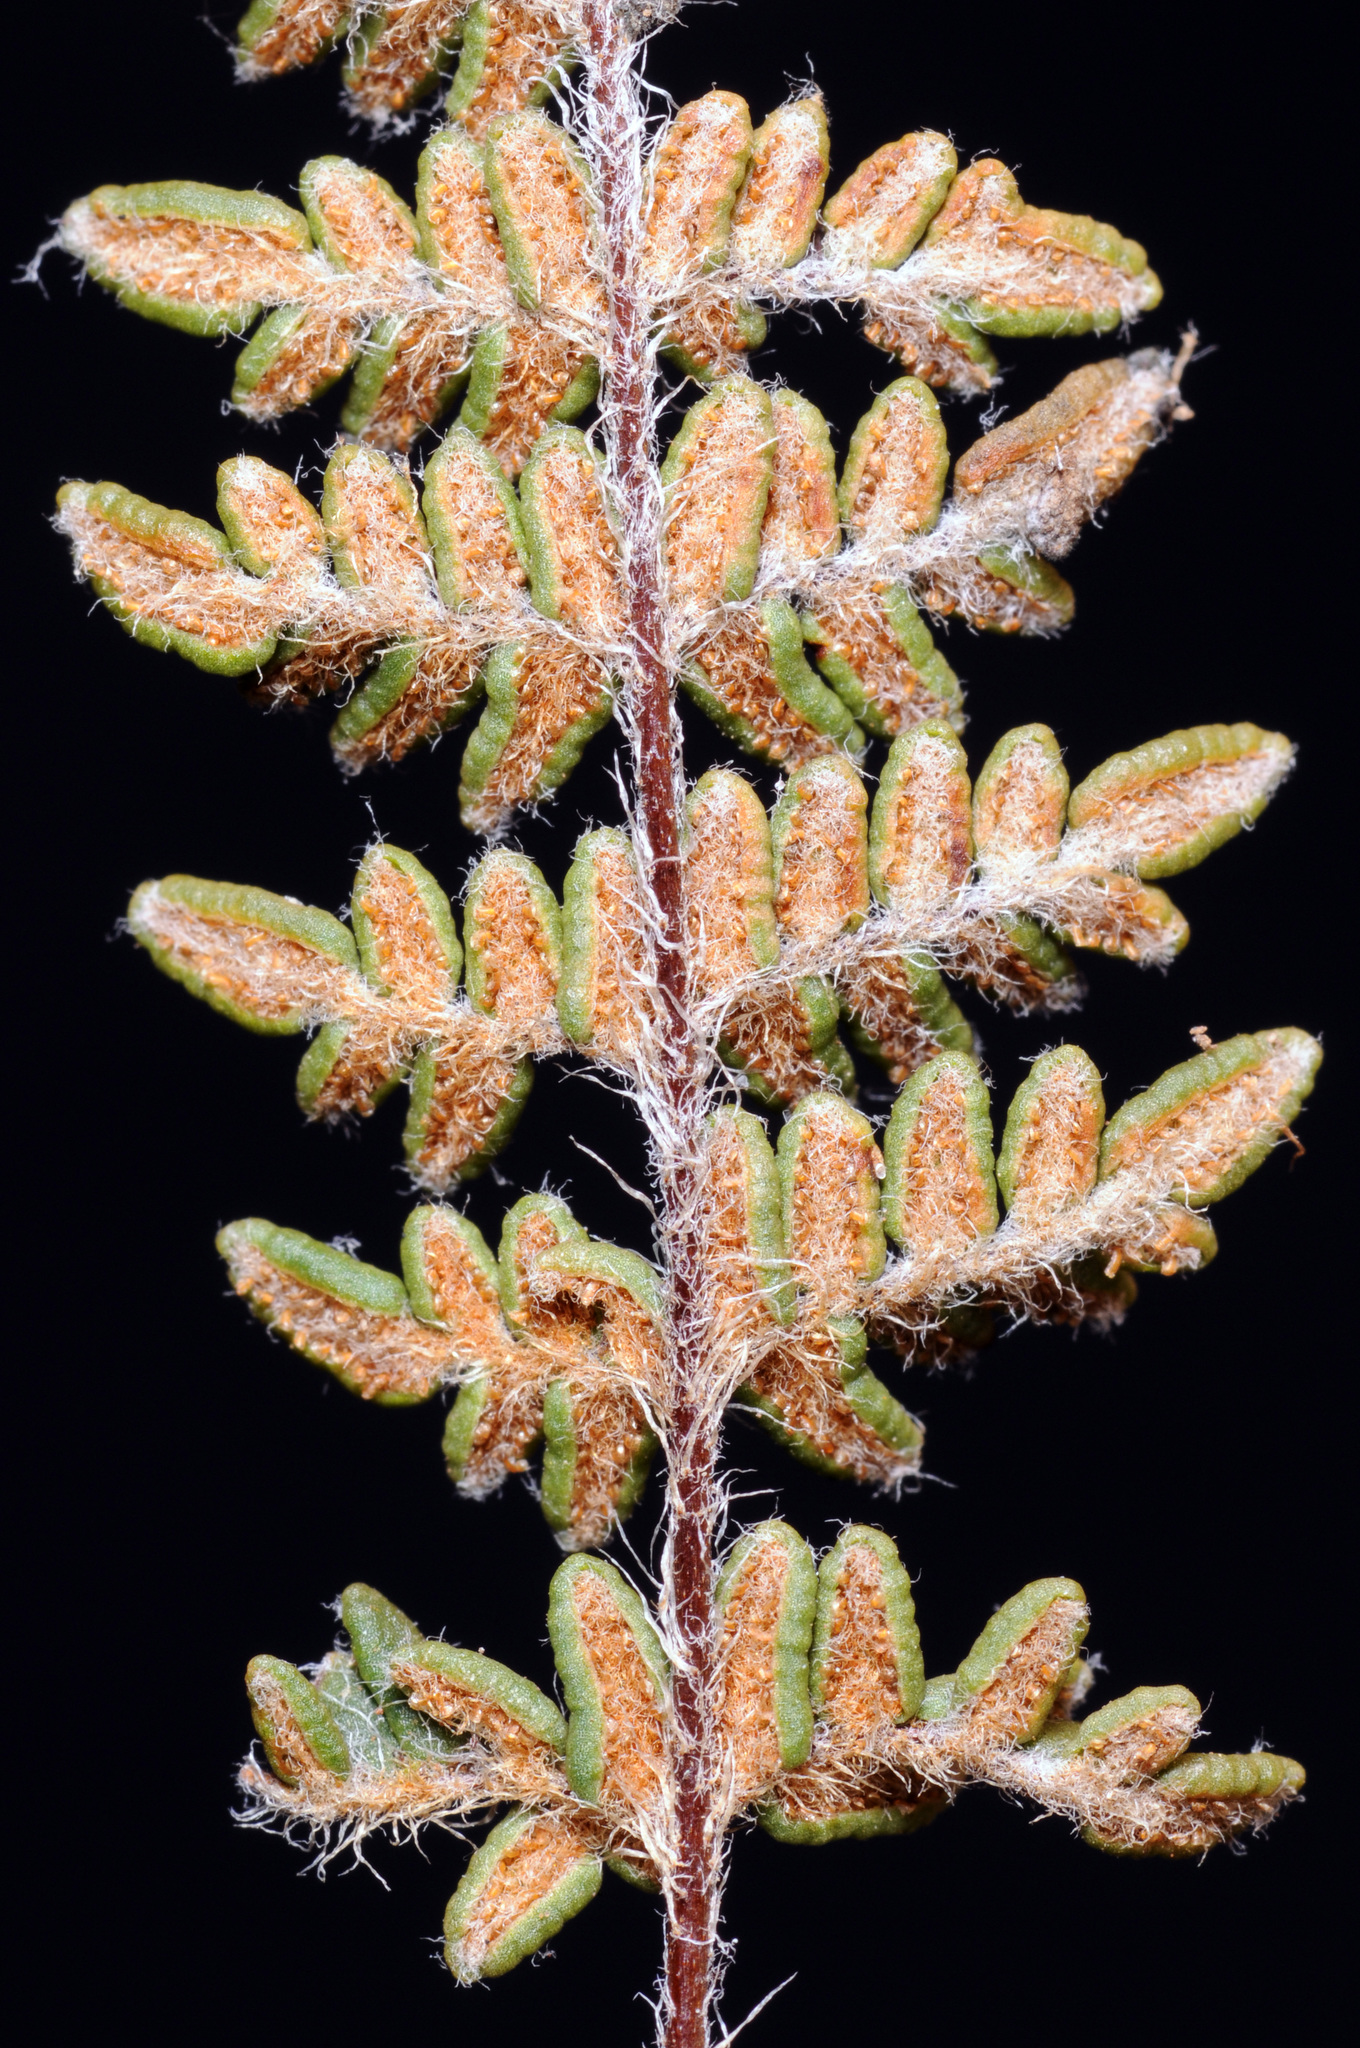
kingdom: Plantae
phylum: Tracheophyta
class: Polypodiopsida
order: Polypodiales
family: Pteridaceae
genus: Myriopteris
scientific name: Myriopteris gracillima
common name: Lace fern
